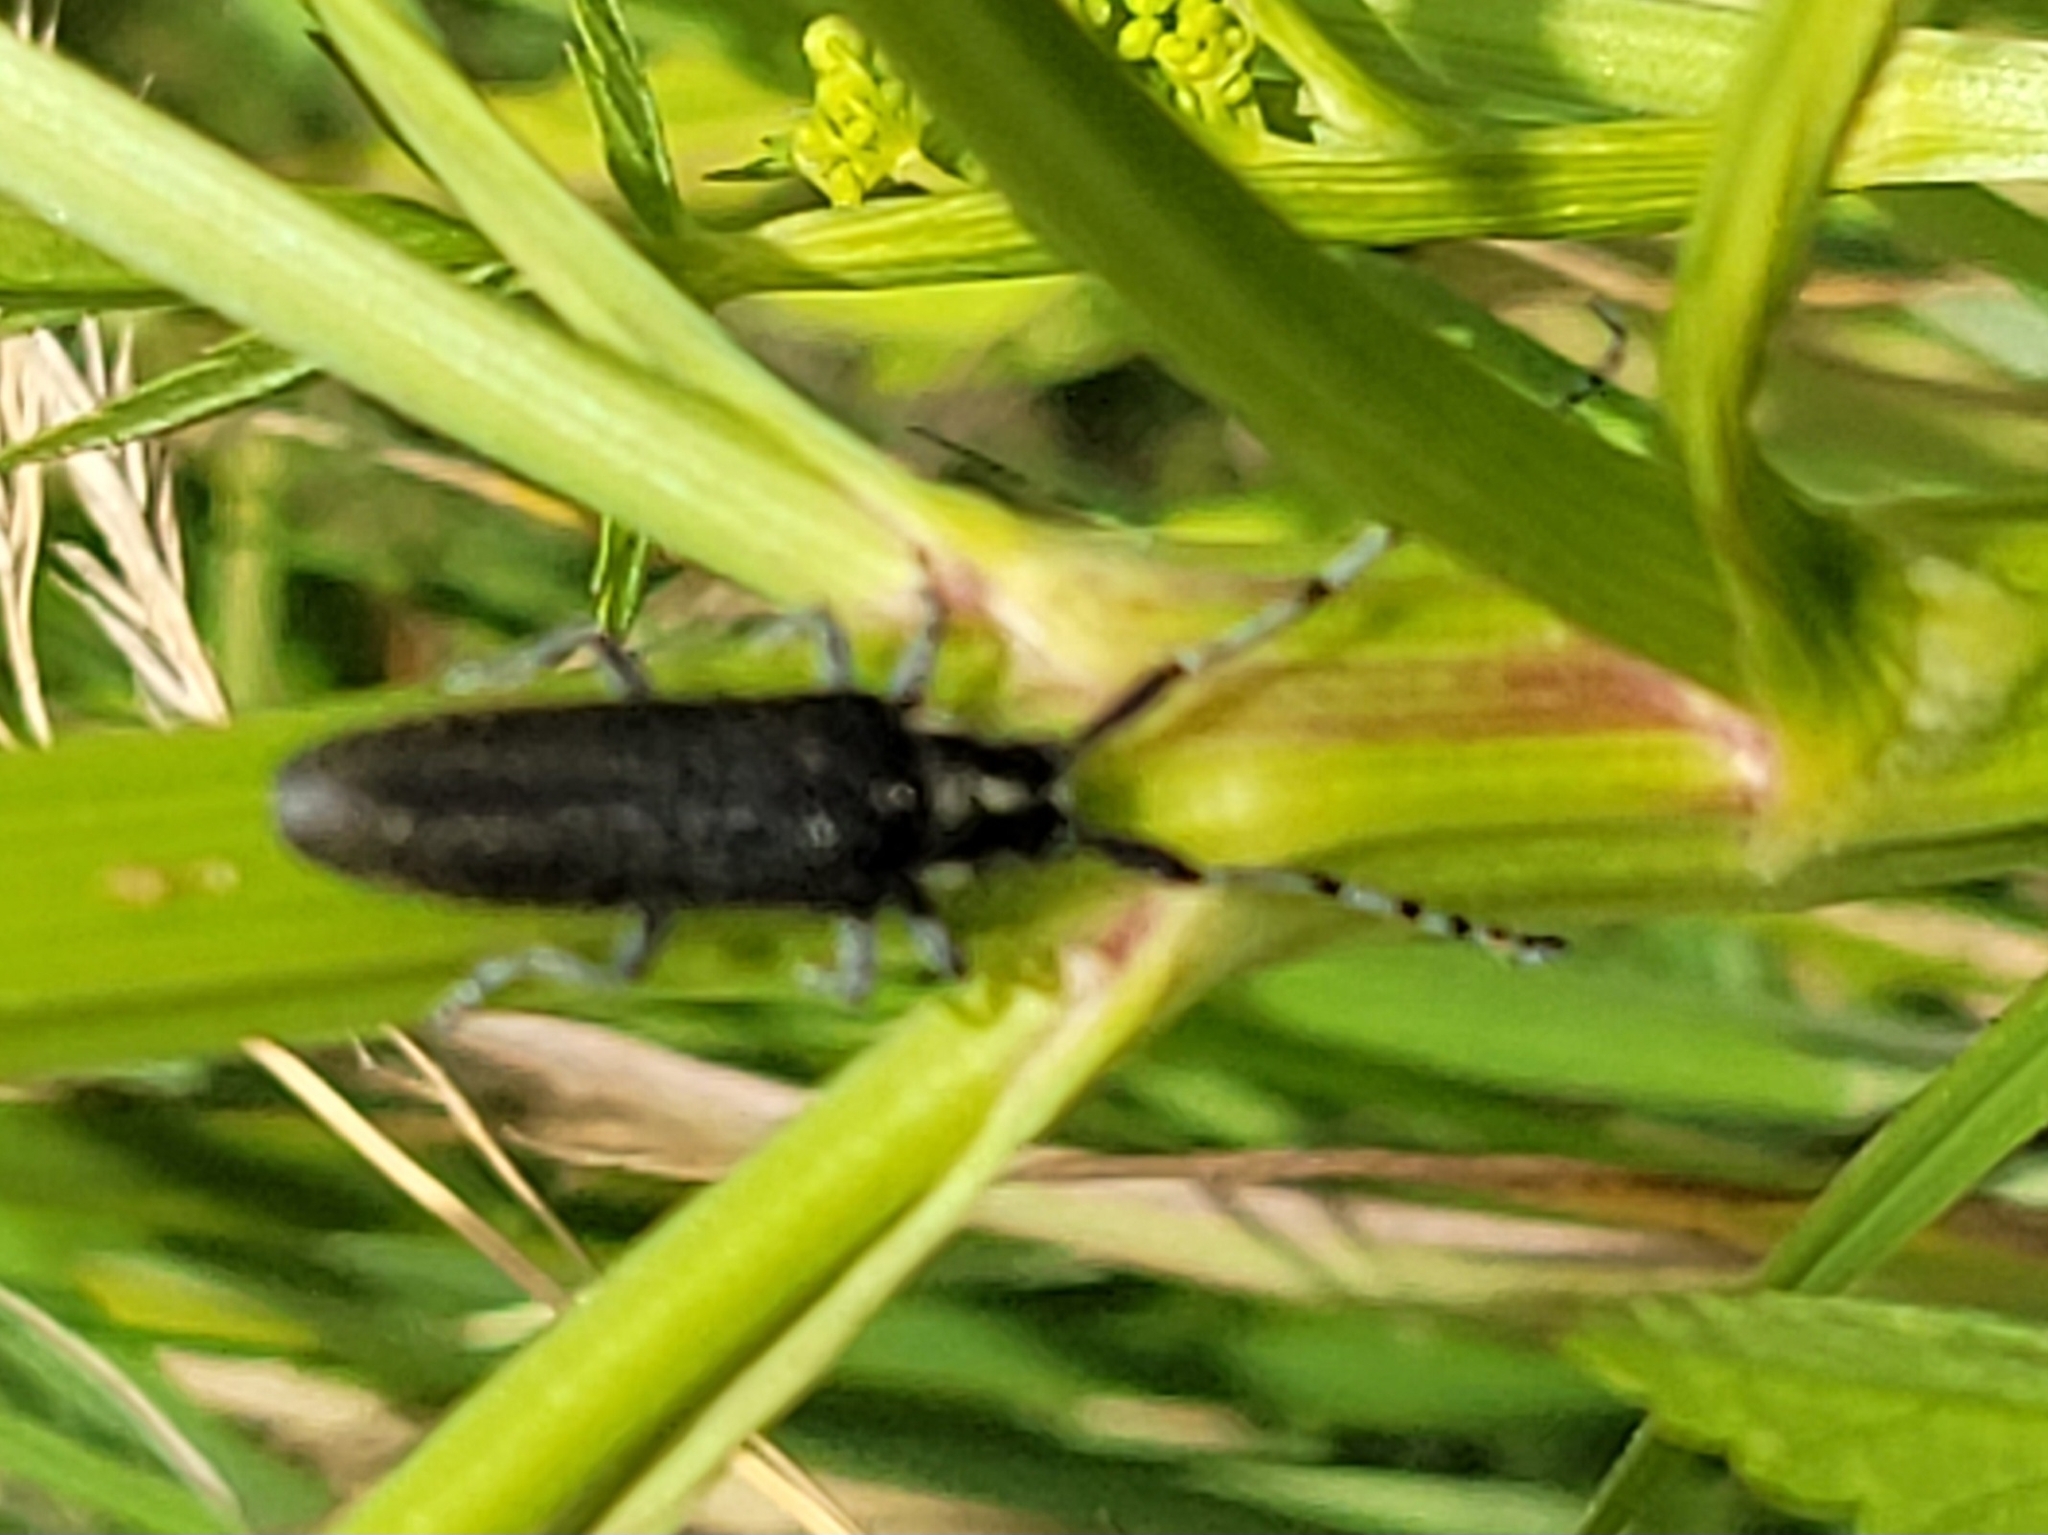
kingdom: Animalia
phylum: Arthropoda
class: Insecta
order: Coleoptera
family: Cerambycidae
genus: Agapanthia
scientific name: Agapanthia villosoviridescens
